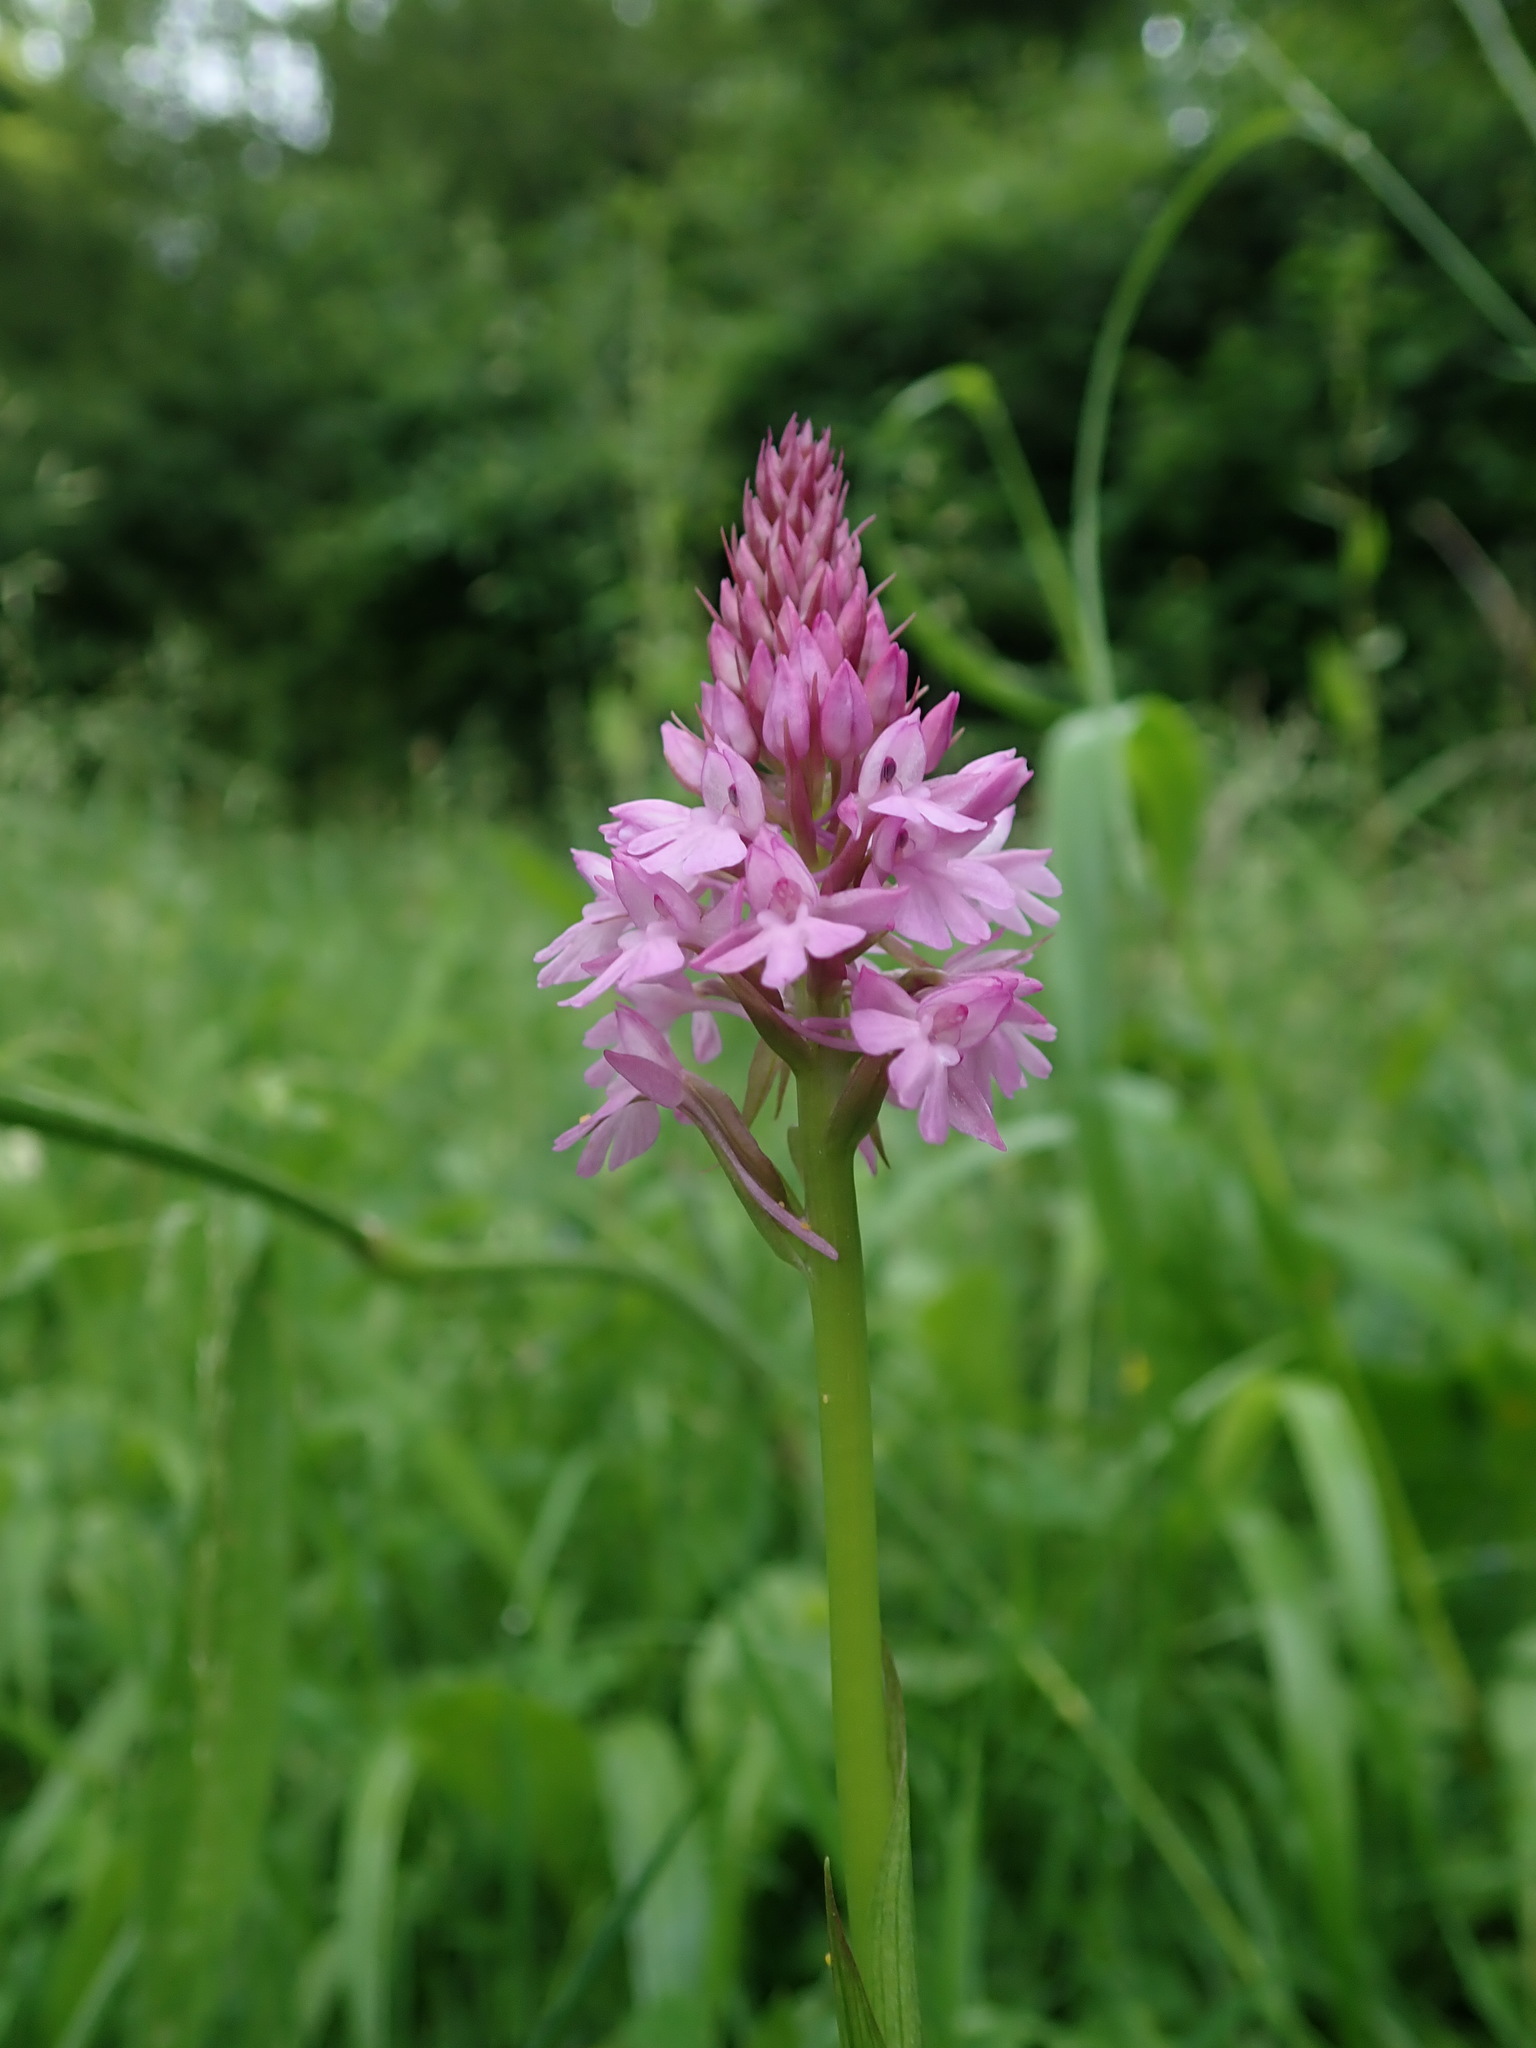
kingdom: Plantae
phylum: Tracheophyta
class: Liliopsida
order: Asparagales
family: Orchidaceae
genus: Anacamptis
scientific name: Anacamptis pyramidalis
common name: Pyramidal orchid
